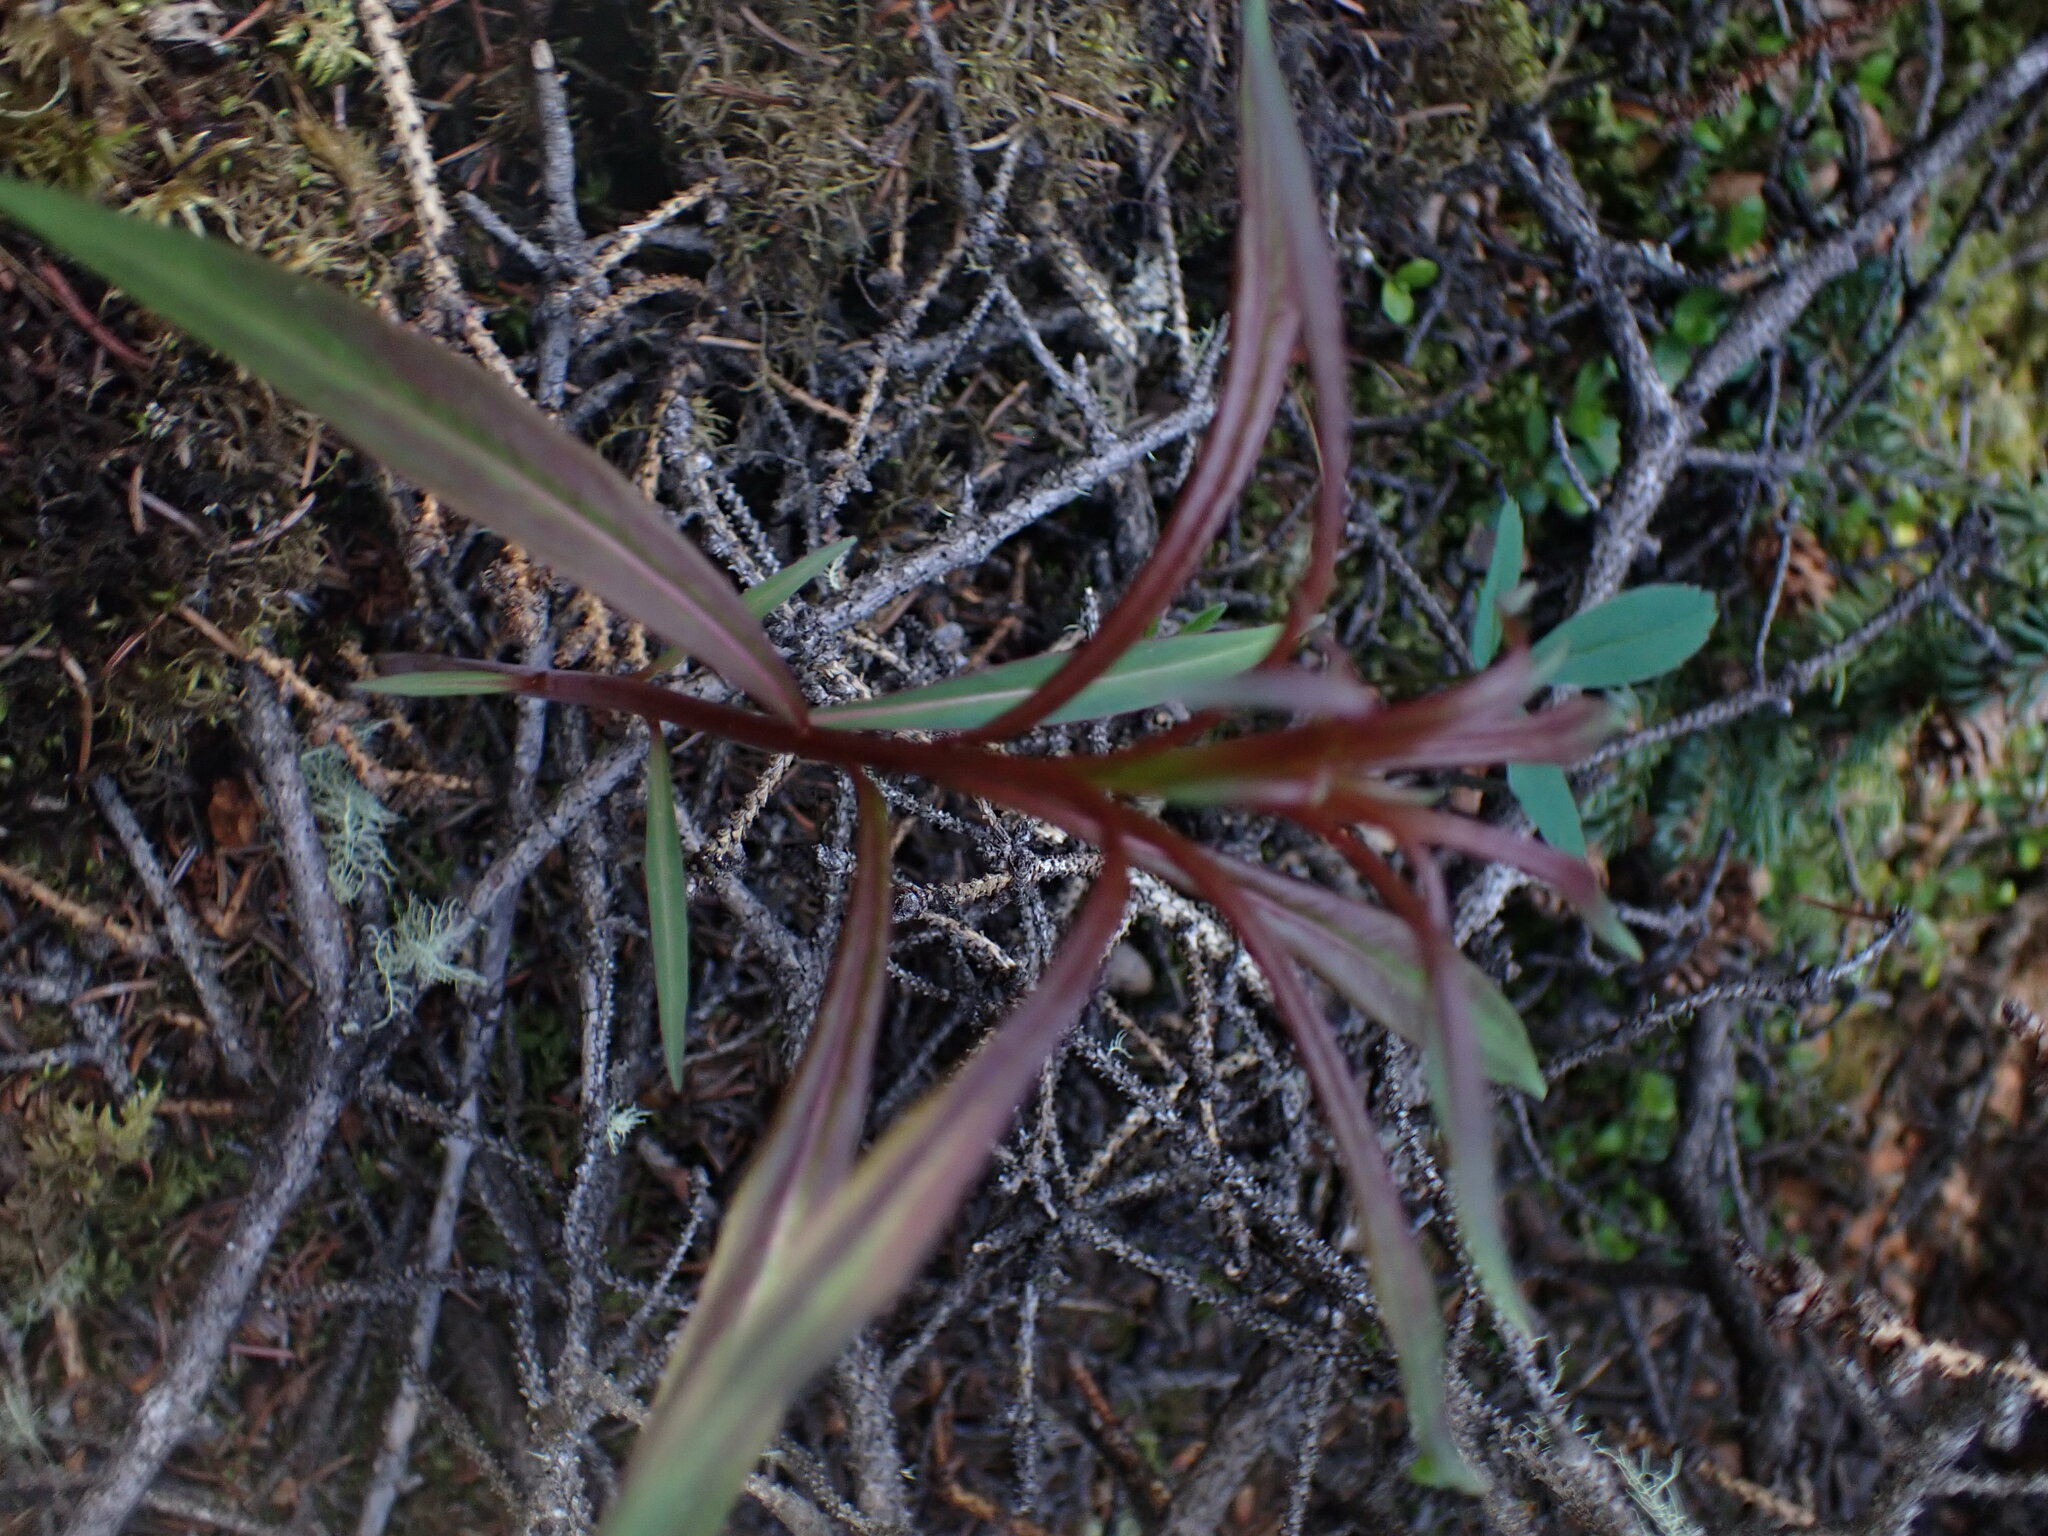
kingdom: Plantae
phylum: Tracheophyta
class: Magnoliopsida
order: Myrtales
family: Onagraceae
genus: Chamaenerion
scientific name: Chamaenerion angustifolium
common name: Fireweed
